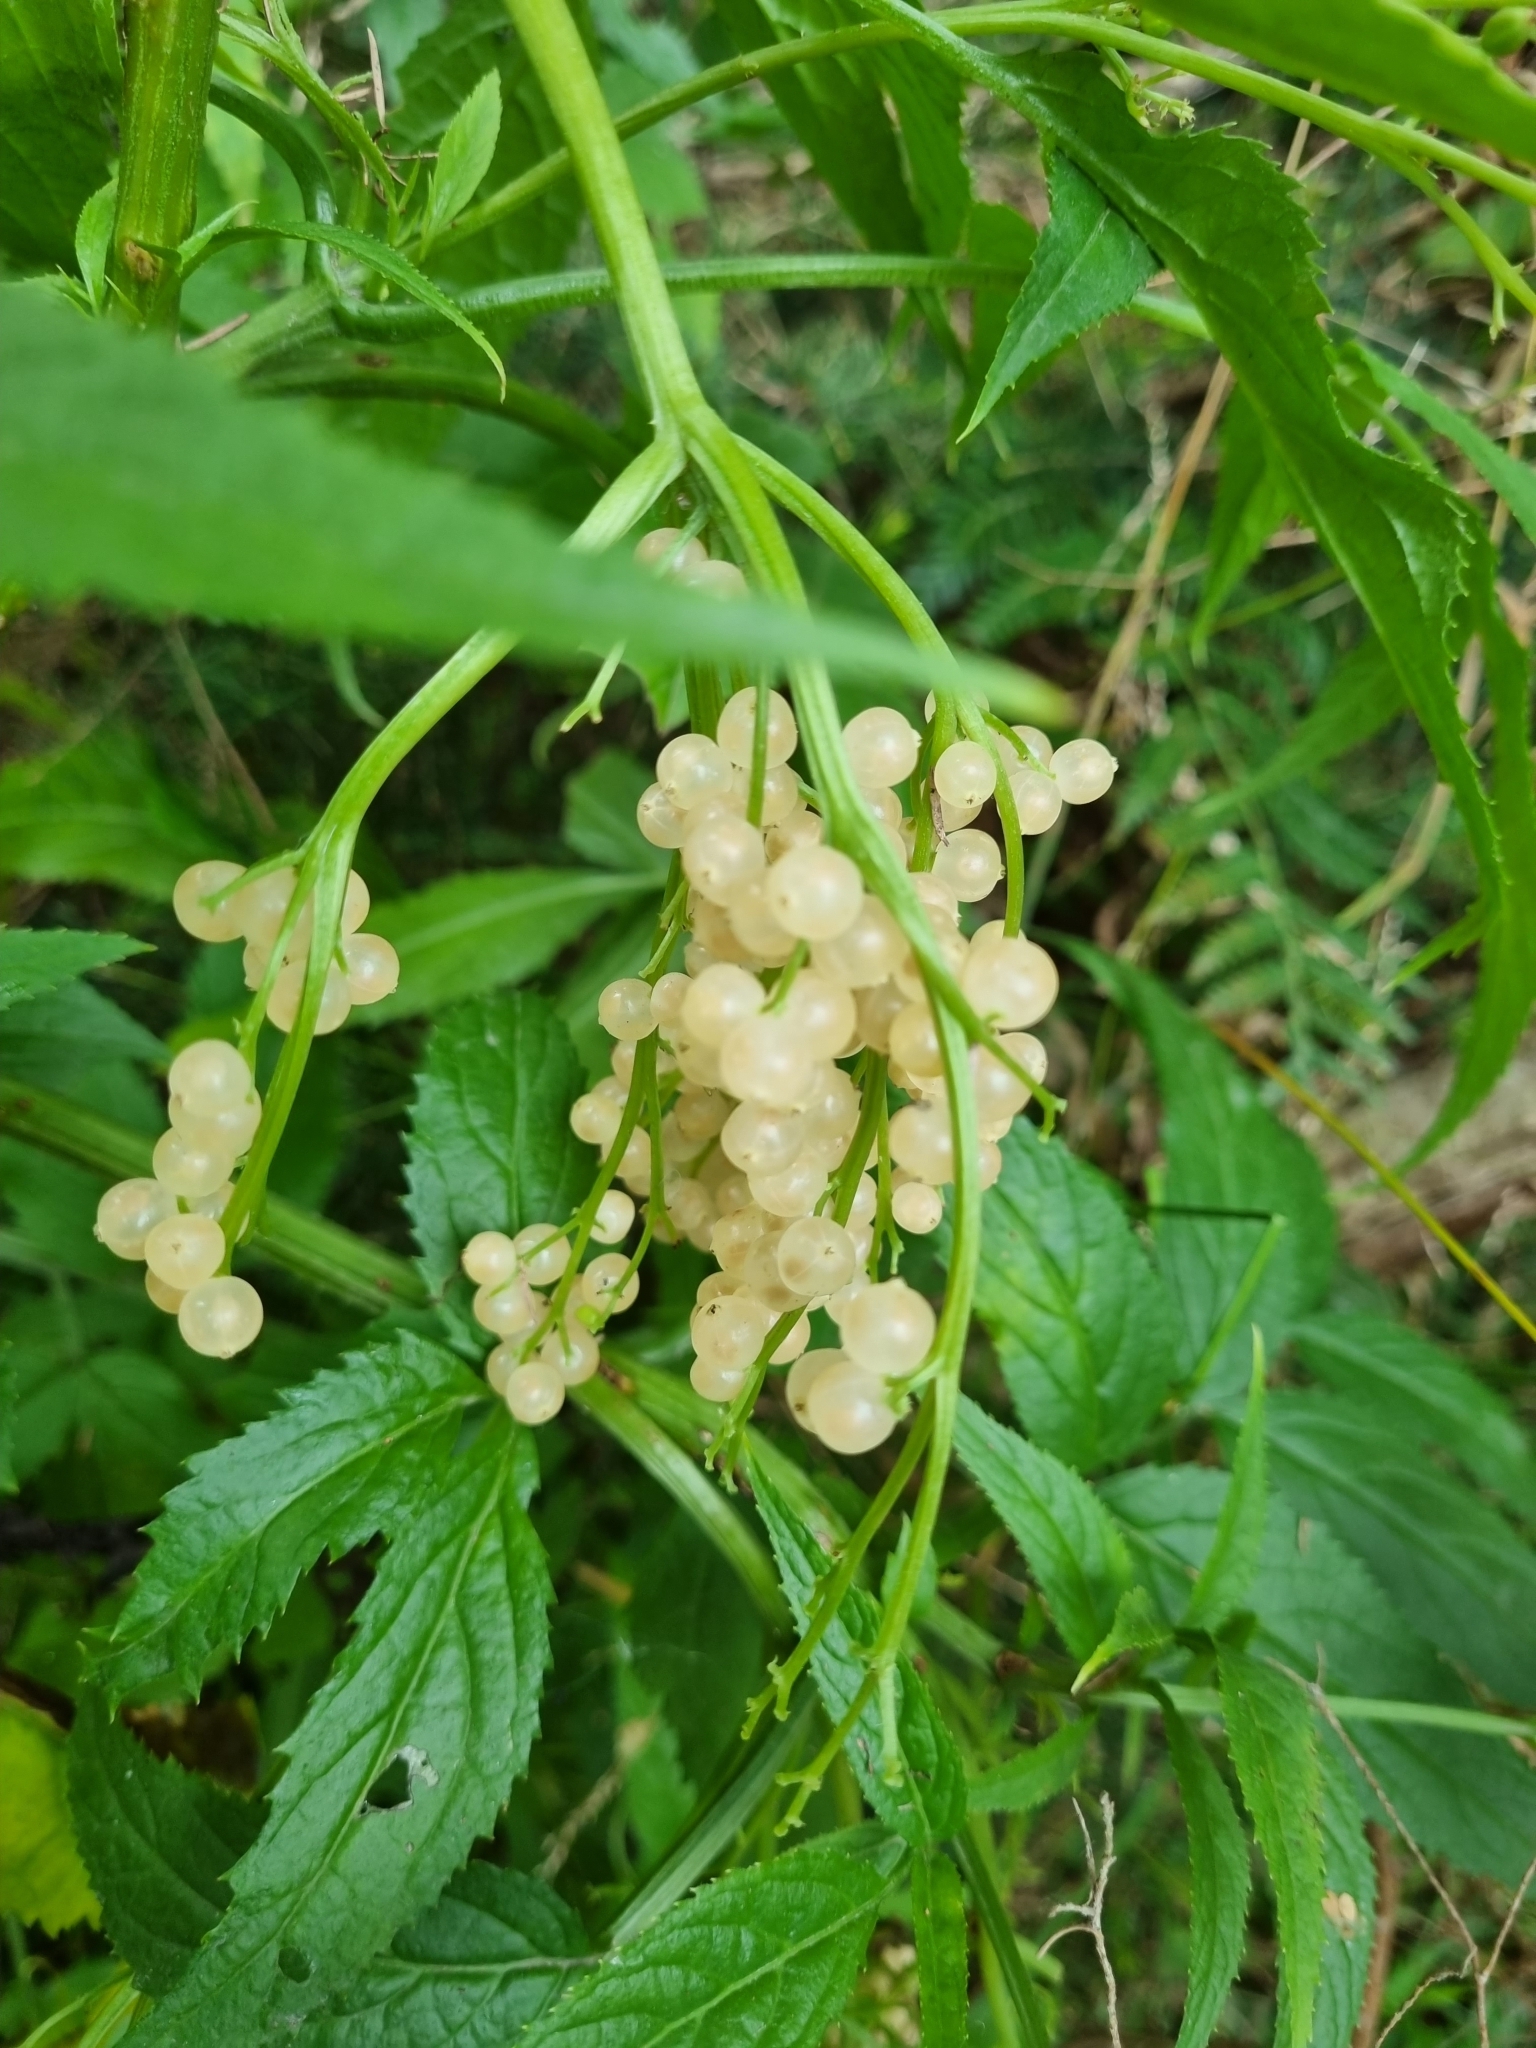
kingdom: Plantae
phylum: Tracheophyta
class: Magnoliopsida
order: Dipsacales
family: Viburnaceae
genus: Sambucus
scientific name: Sambucus gaudichaudiana
